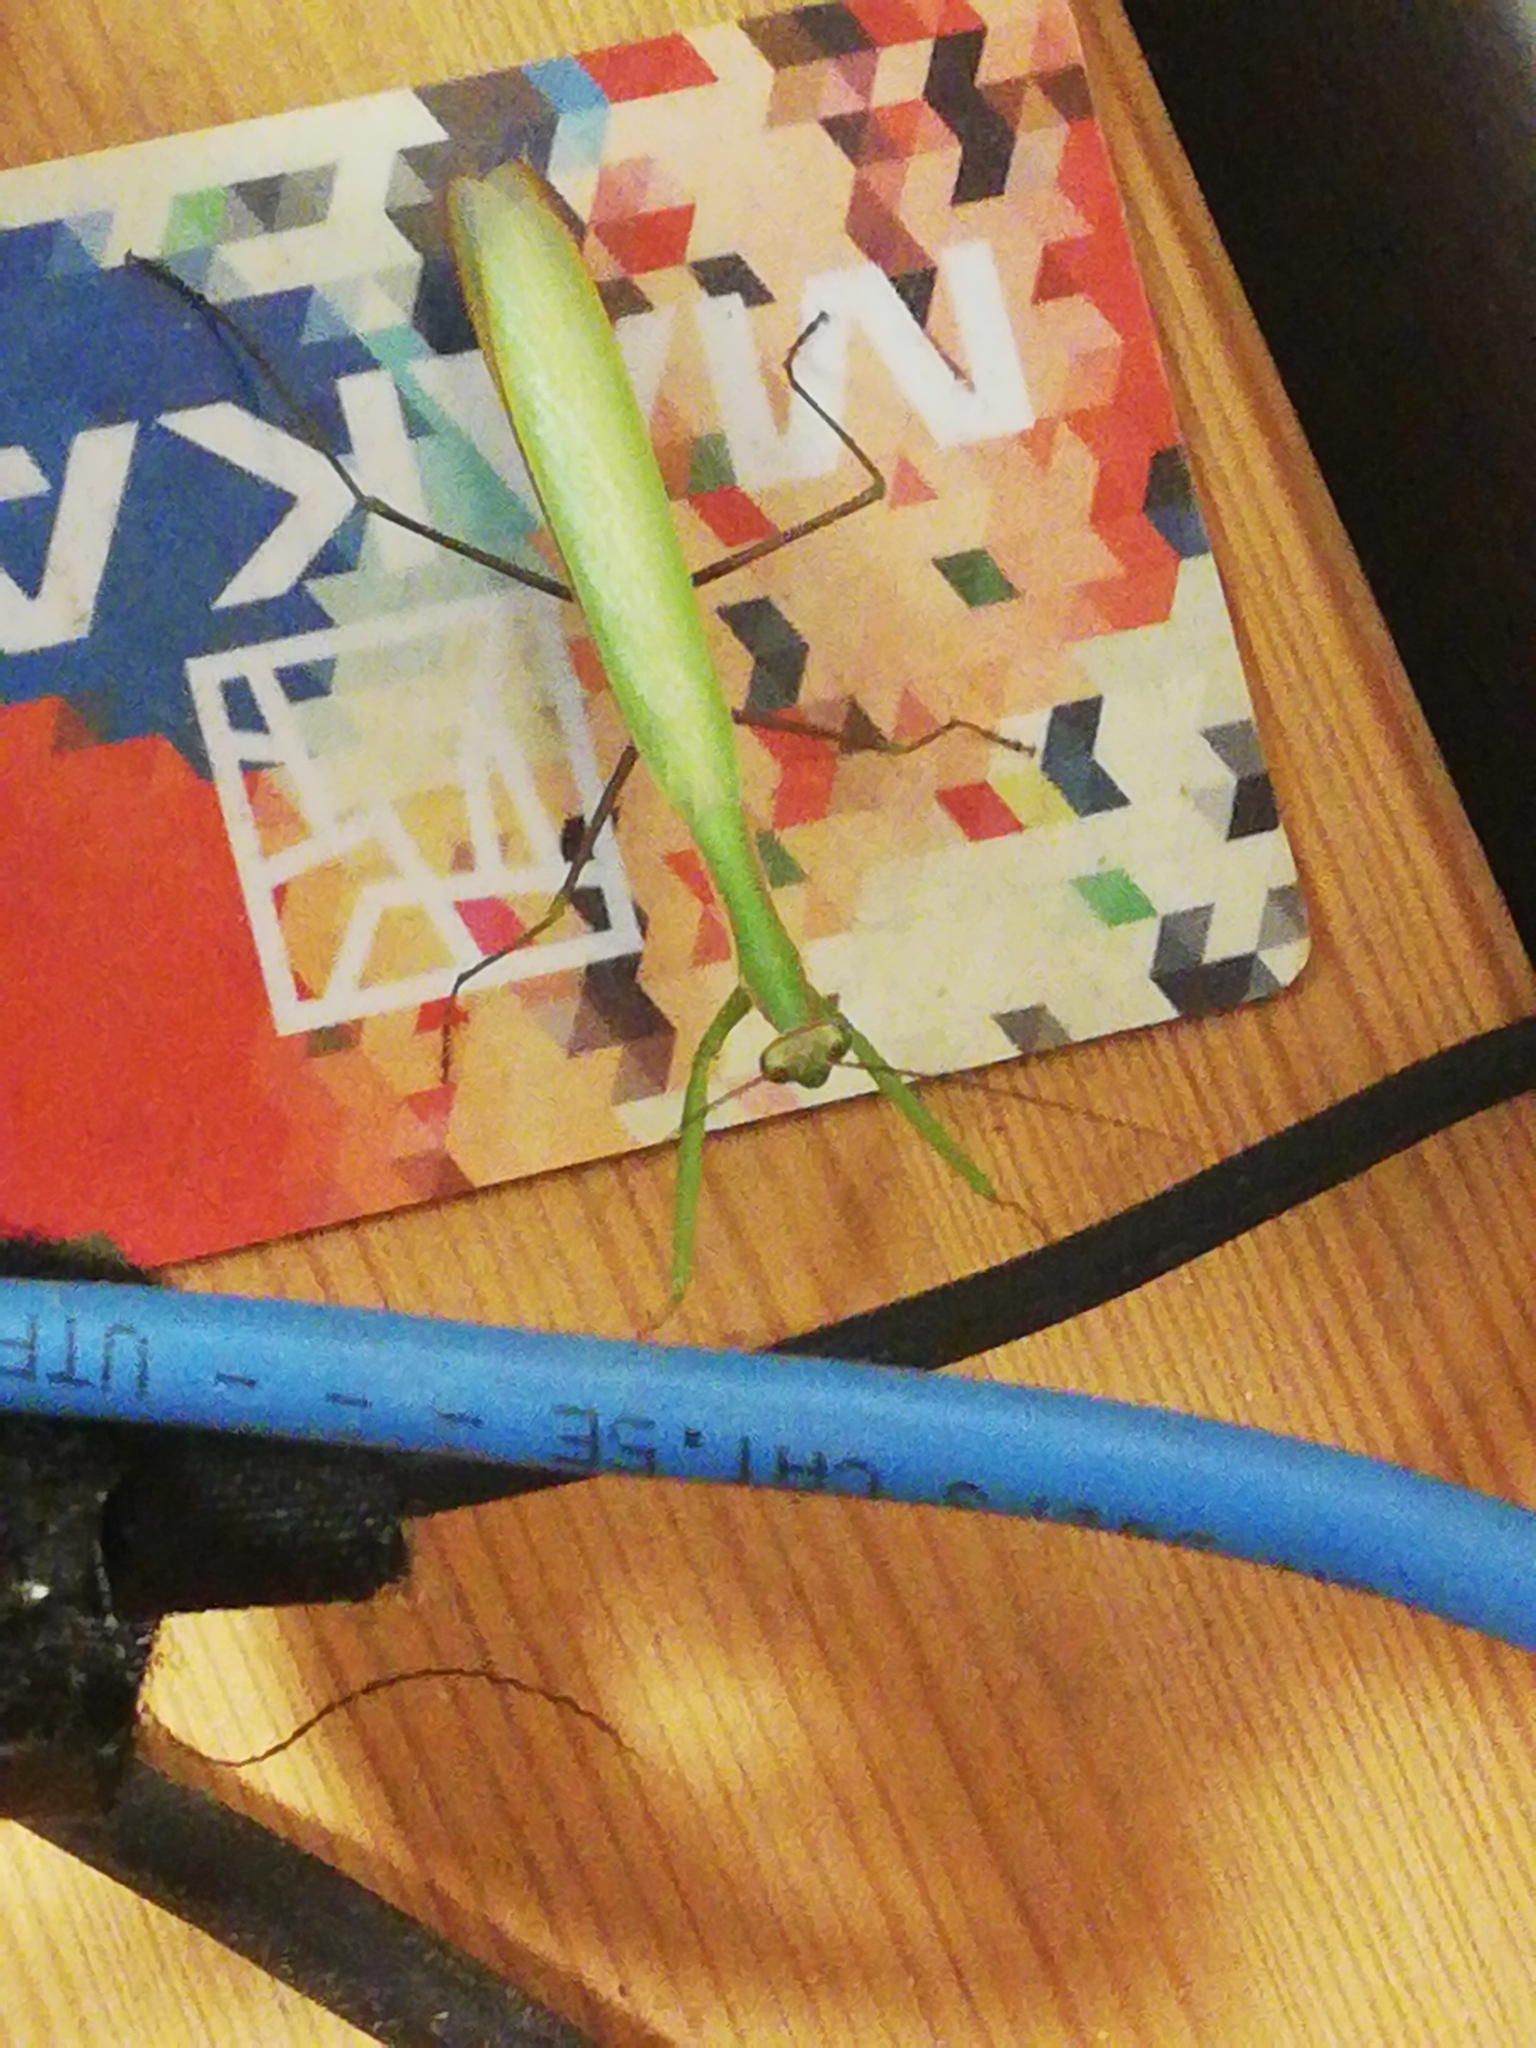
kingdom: Animalia
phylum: Arthropoda
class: Insecta
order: Mantodea
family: Mantidae
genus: Mantis
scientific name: Mantis religiosa
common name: Praying mantis
